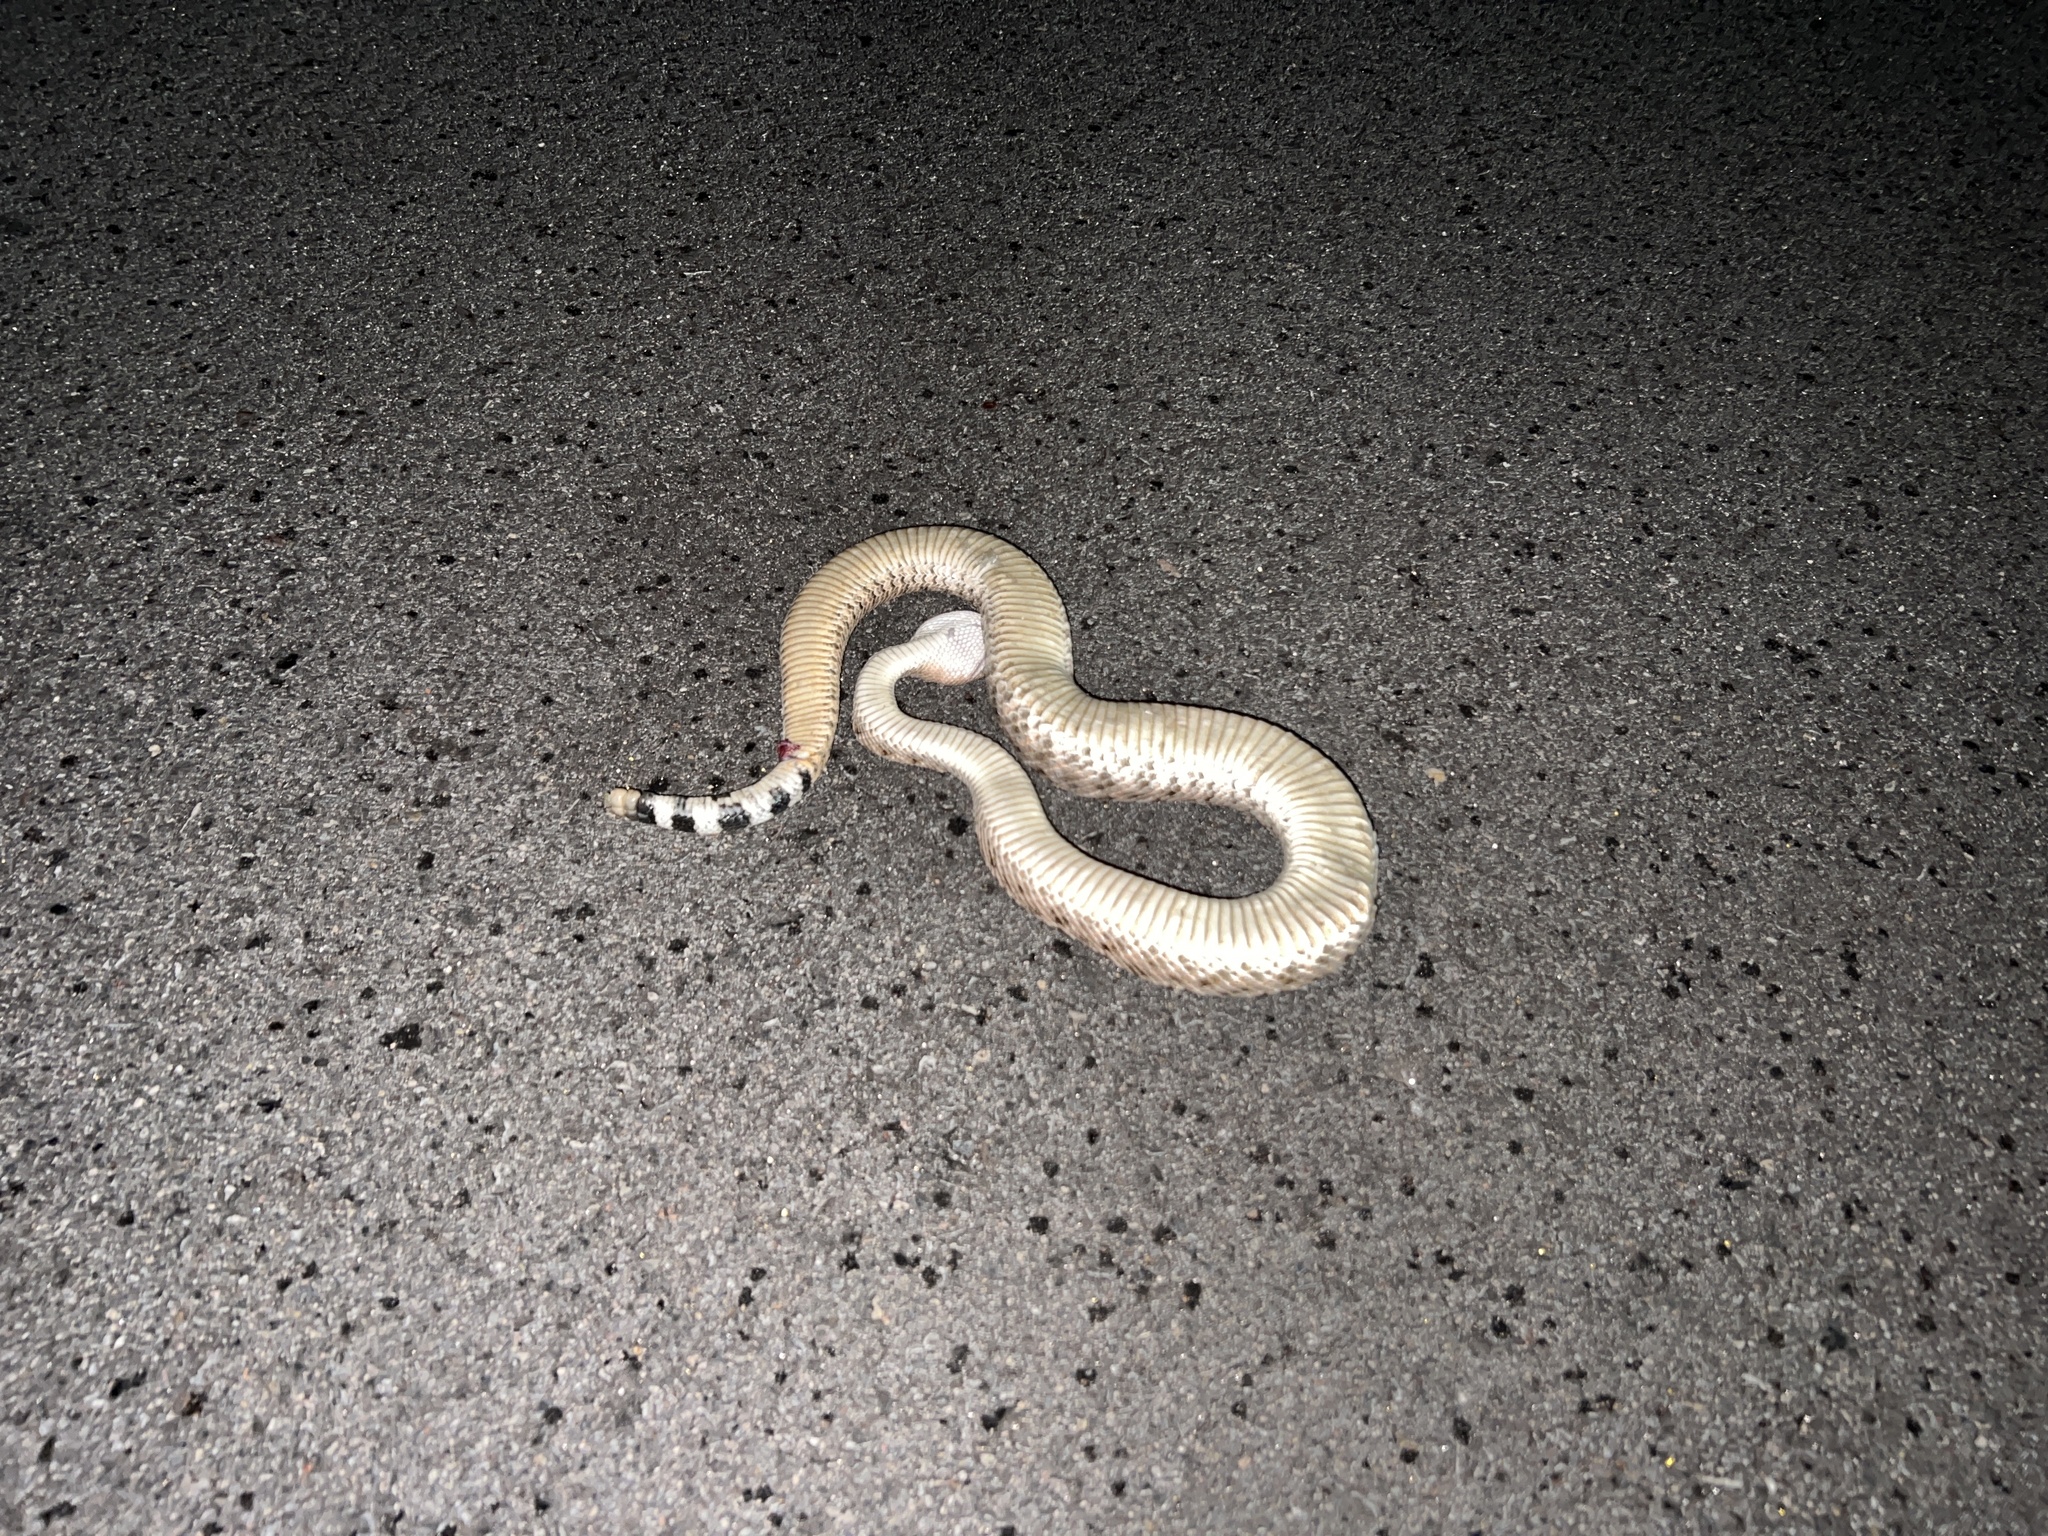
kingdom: Animalia
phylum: Chordata
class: Squamata
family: Viperidae
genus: Crotalus
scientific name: Crotalus atrox
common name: Western diamond-backed rattlesnake
